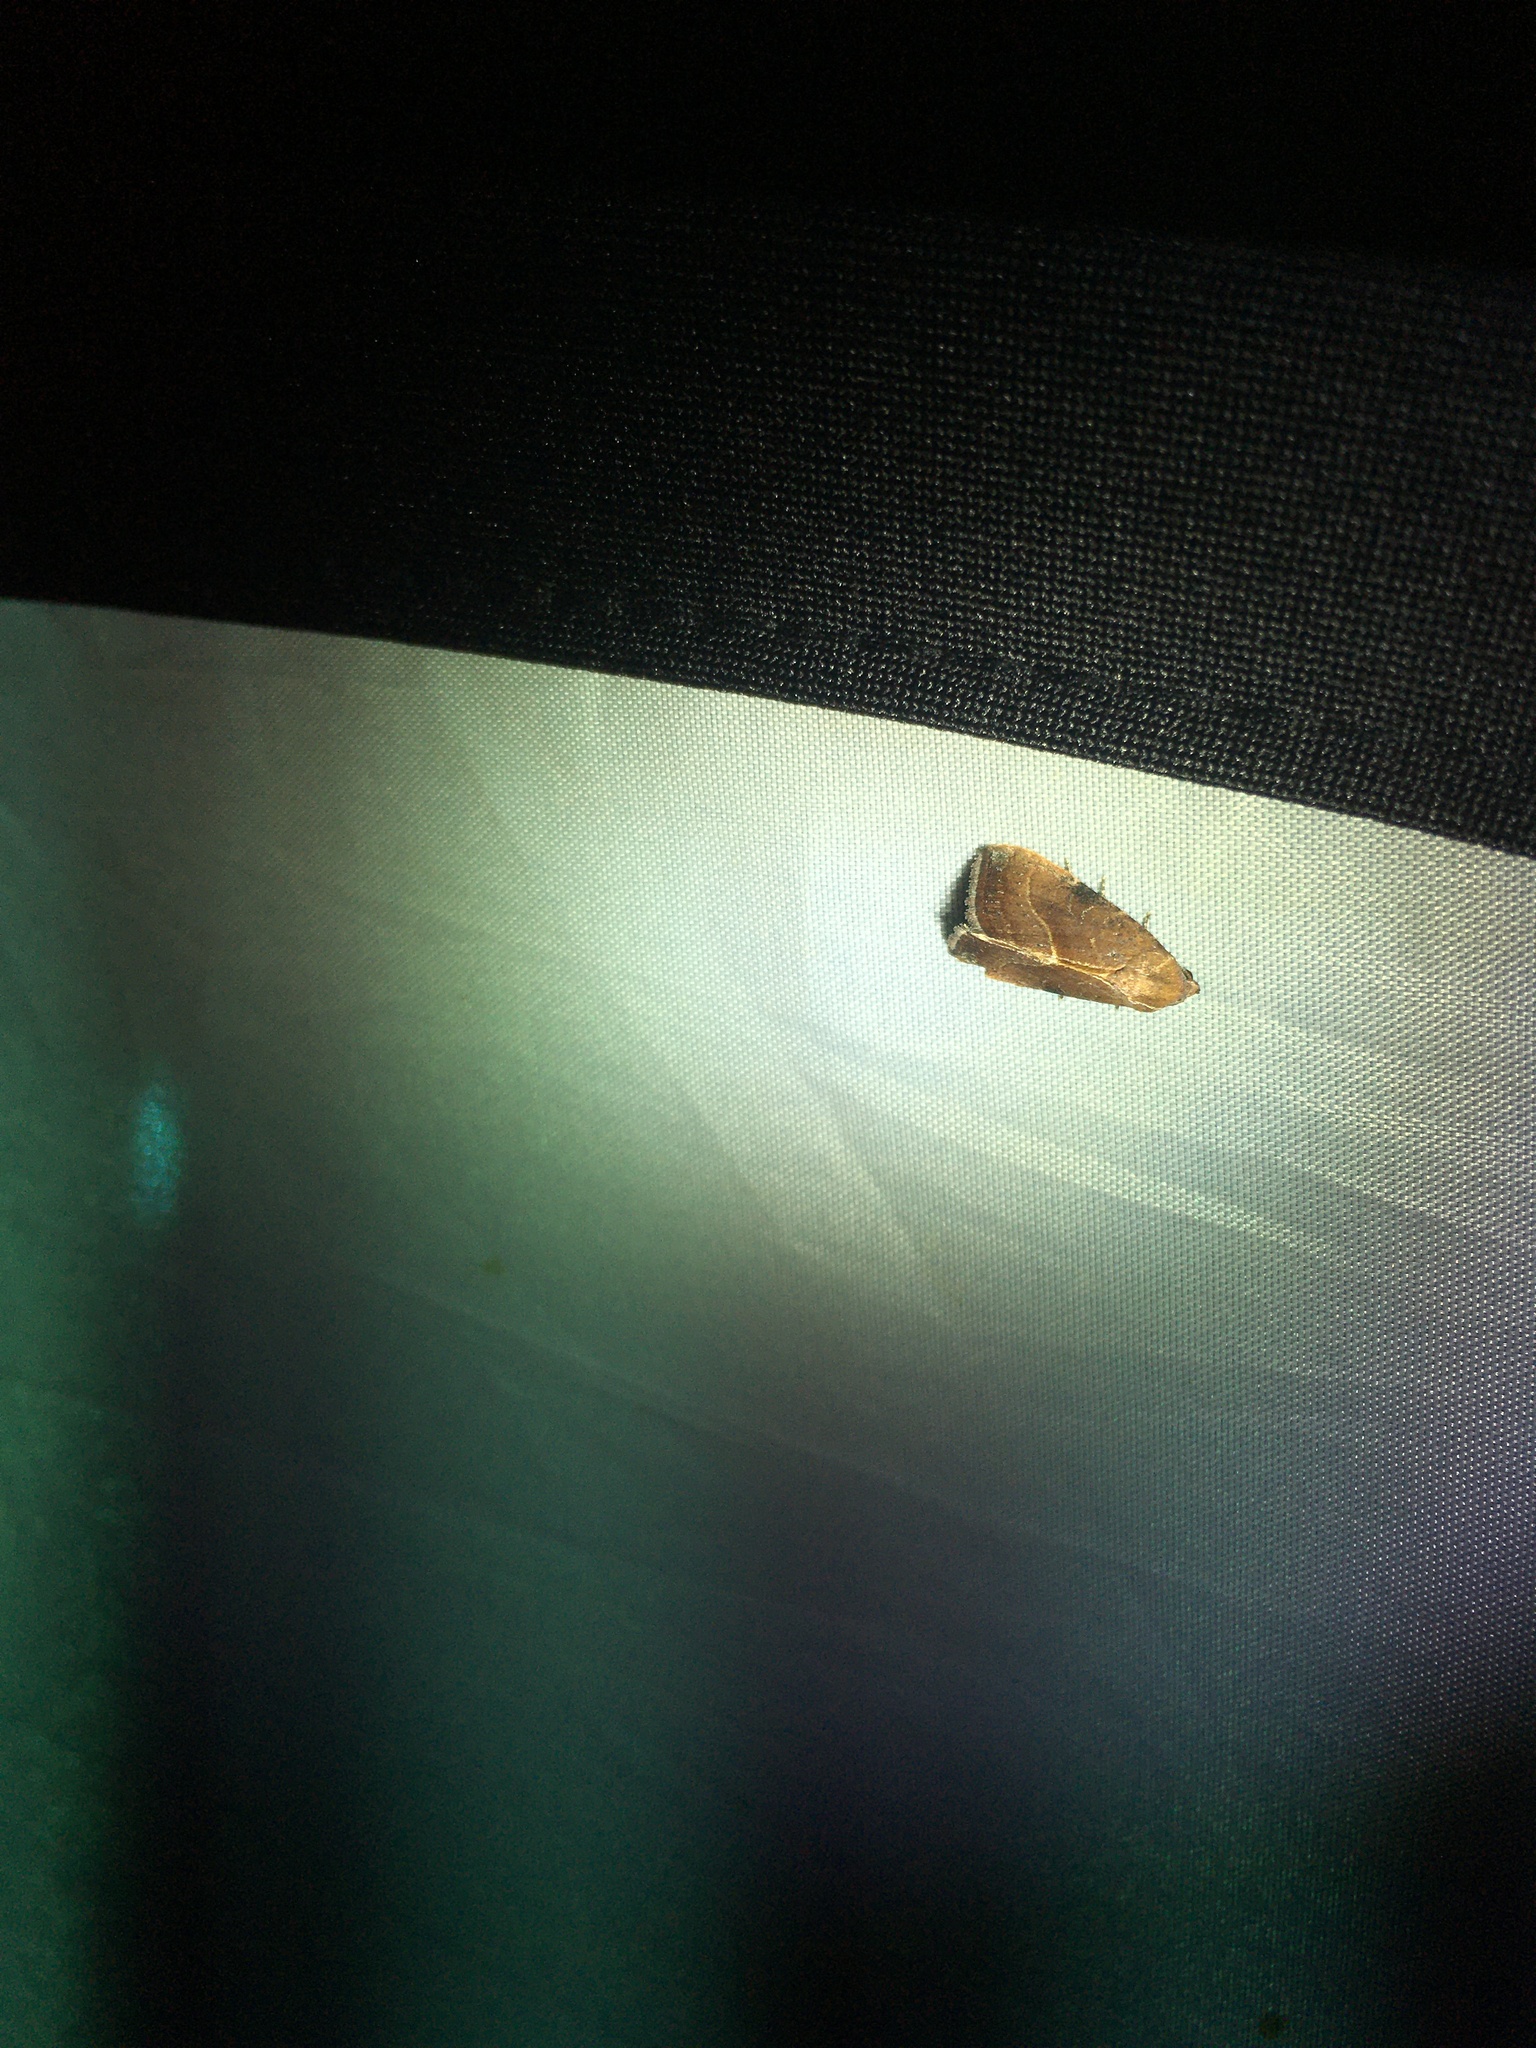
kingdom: Animalia
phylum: Arthropoda
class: Insecta
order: Lepidoptera
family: Noctuidae
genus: Galgula
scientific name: Galgula partita
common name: Wedgeling
